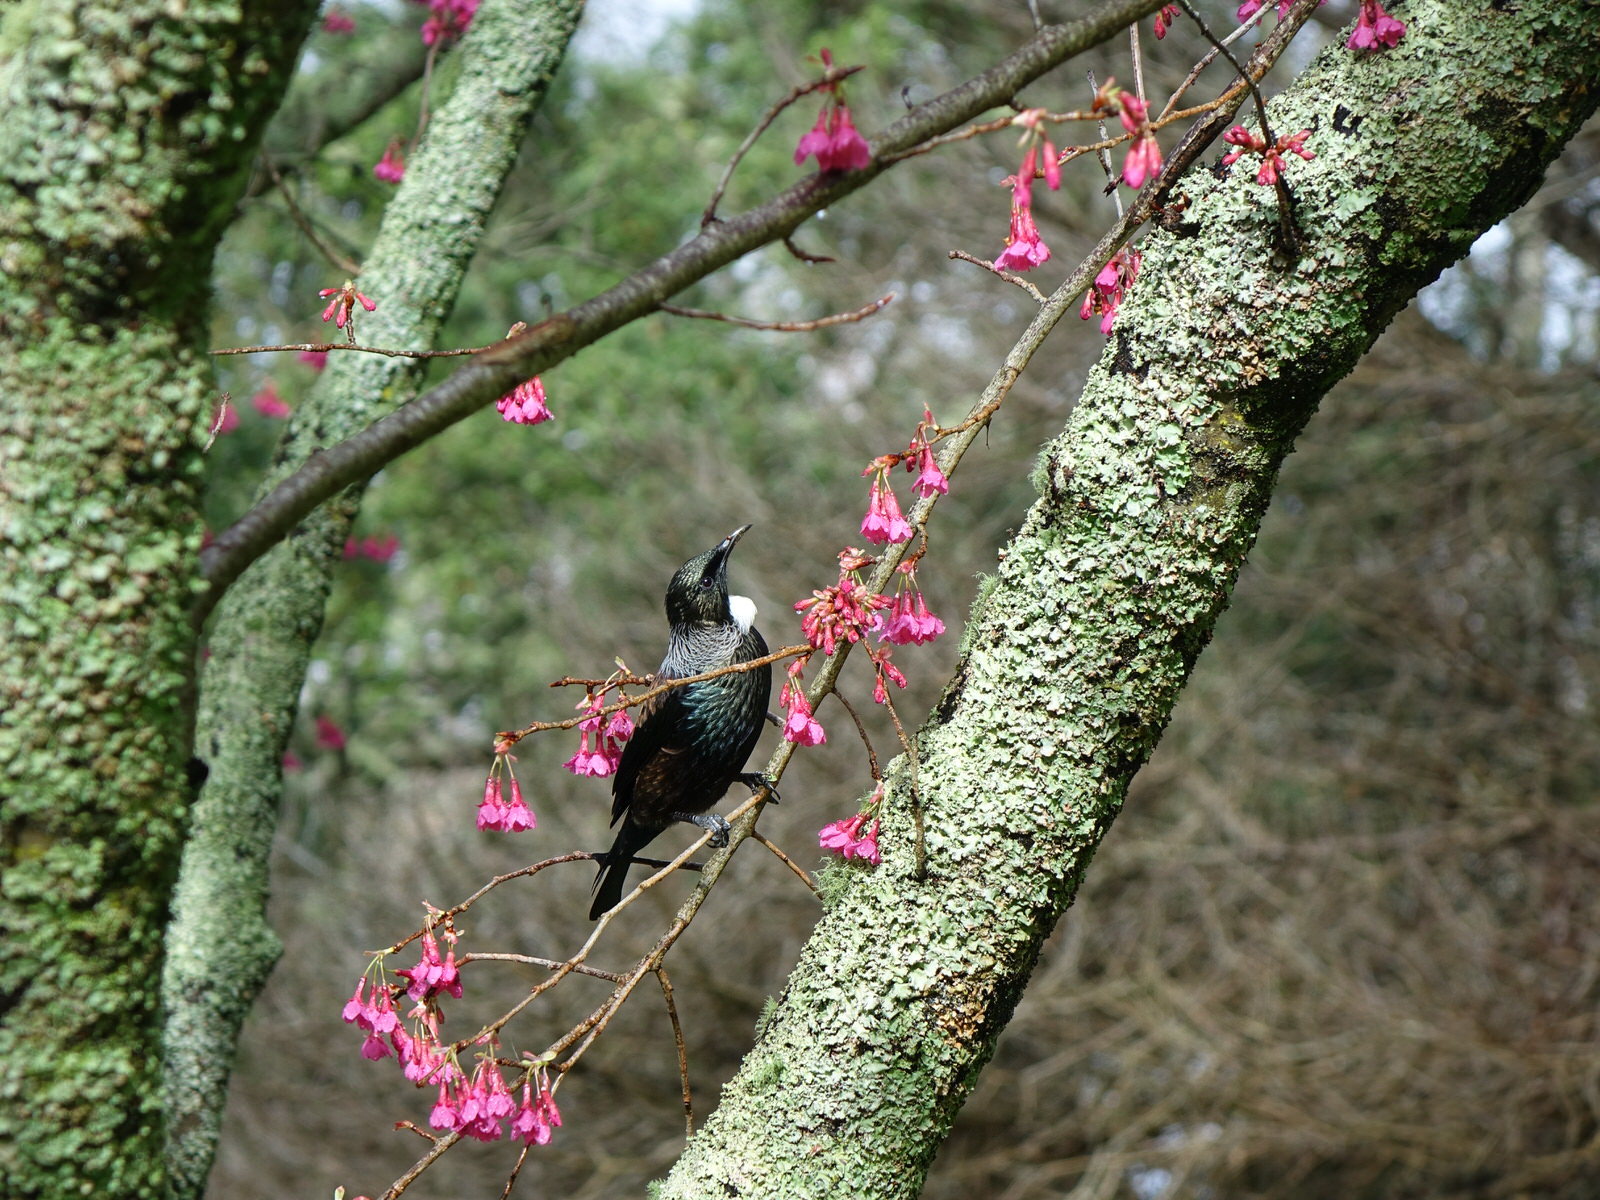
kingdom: Animalia
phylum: Chordata
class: Aves
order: Passeriformes
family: Meliphagidae
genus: Prosthemadera
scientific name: Prosthemadera novaeseelandiae
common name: Tui
